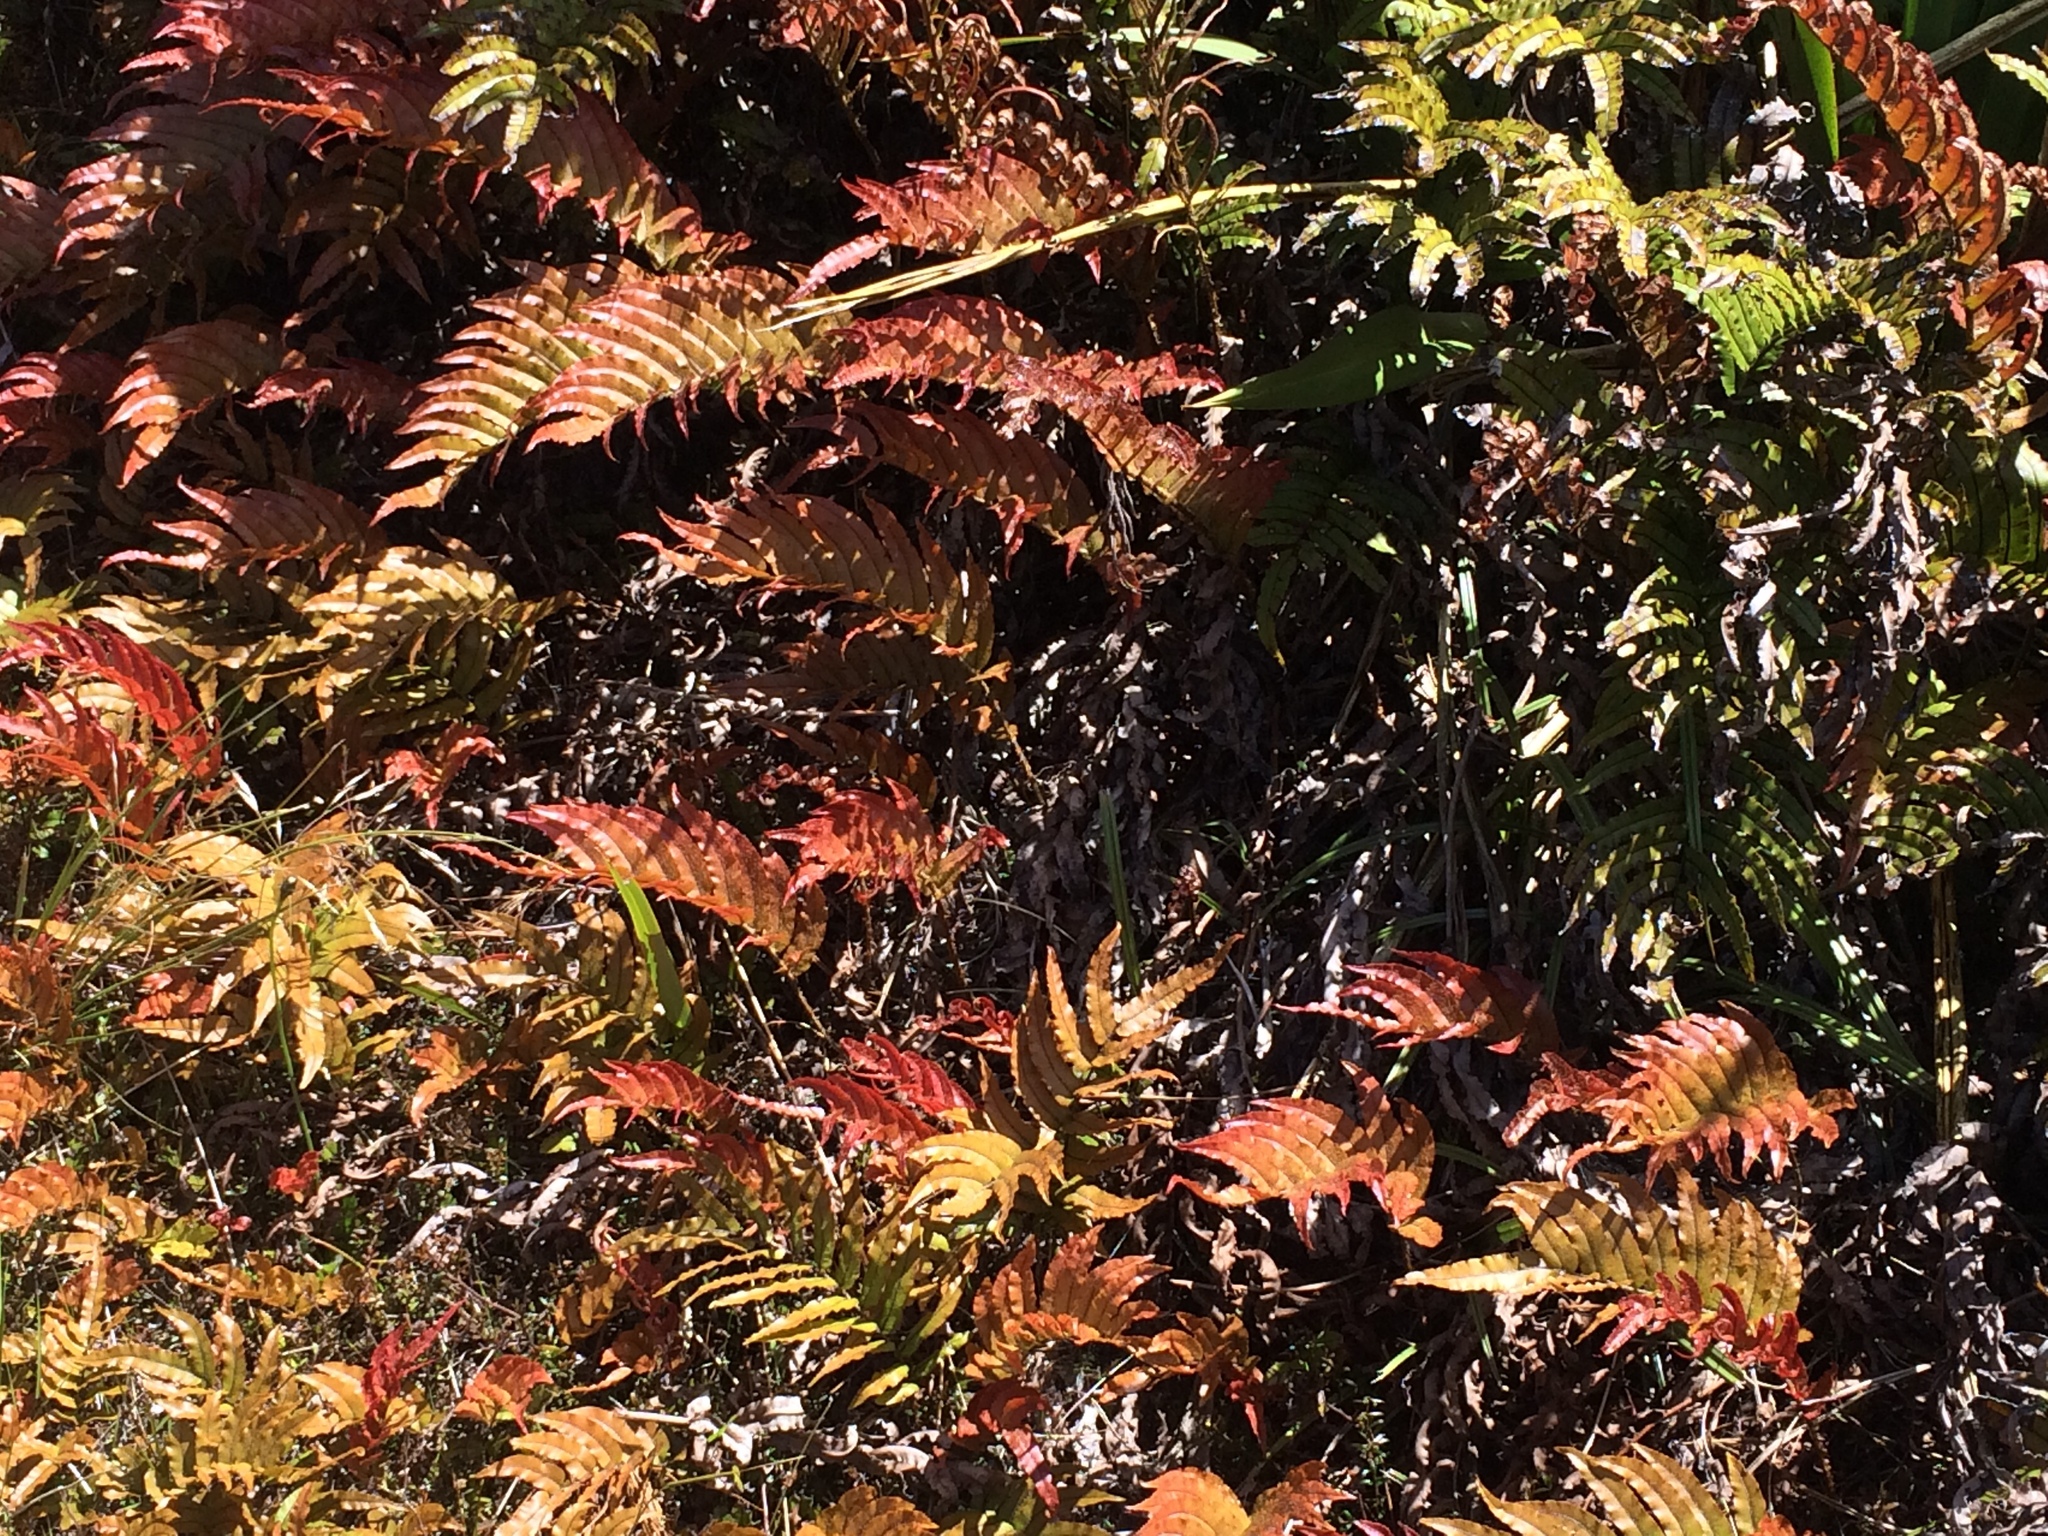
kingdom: Plantae
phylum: Tracheophyta
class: Polypodiopsida
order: Polypodiales
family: Blechnaceae
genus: Parablechnum
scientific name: Parablechnum montanum
